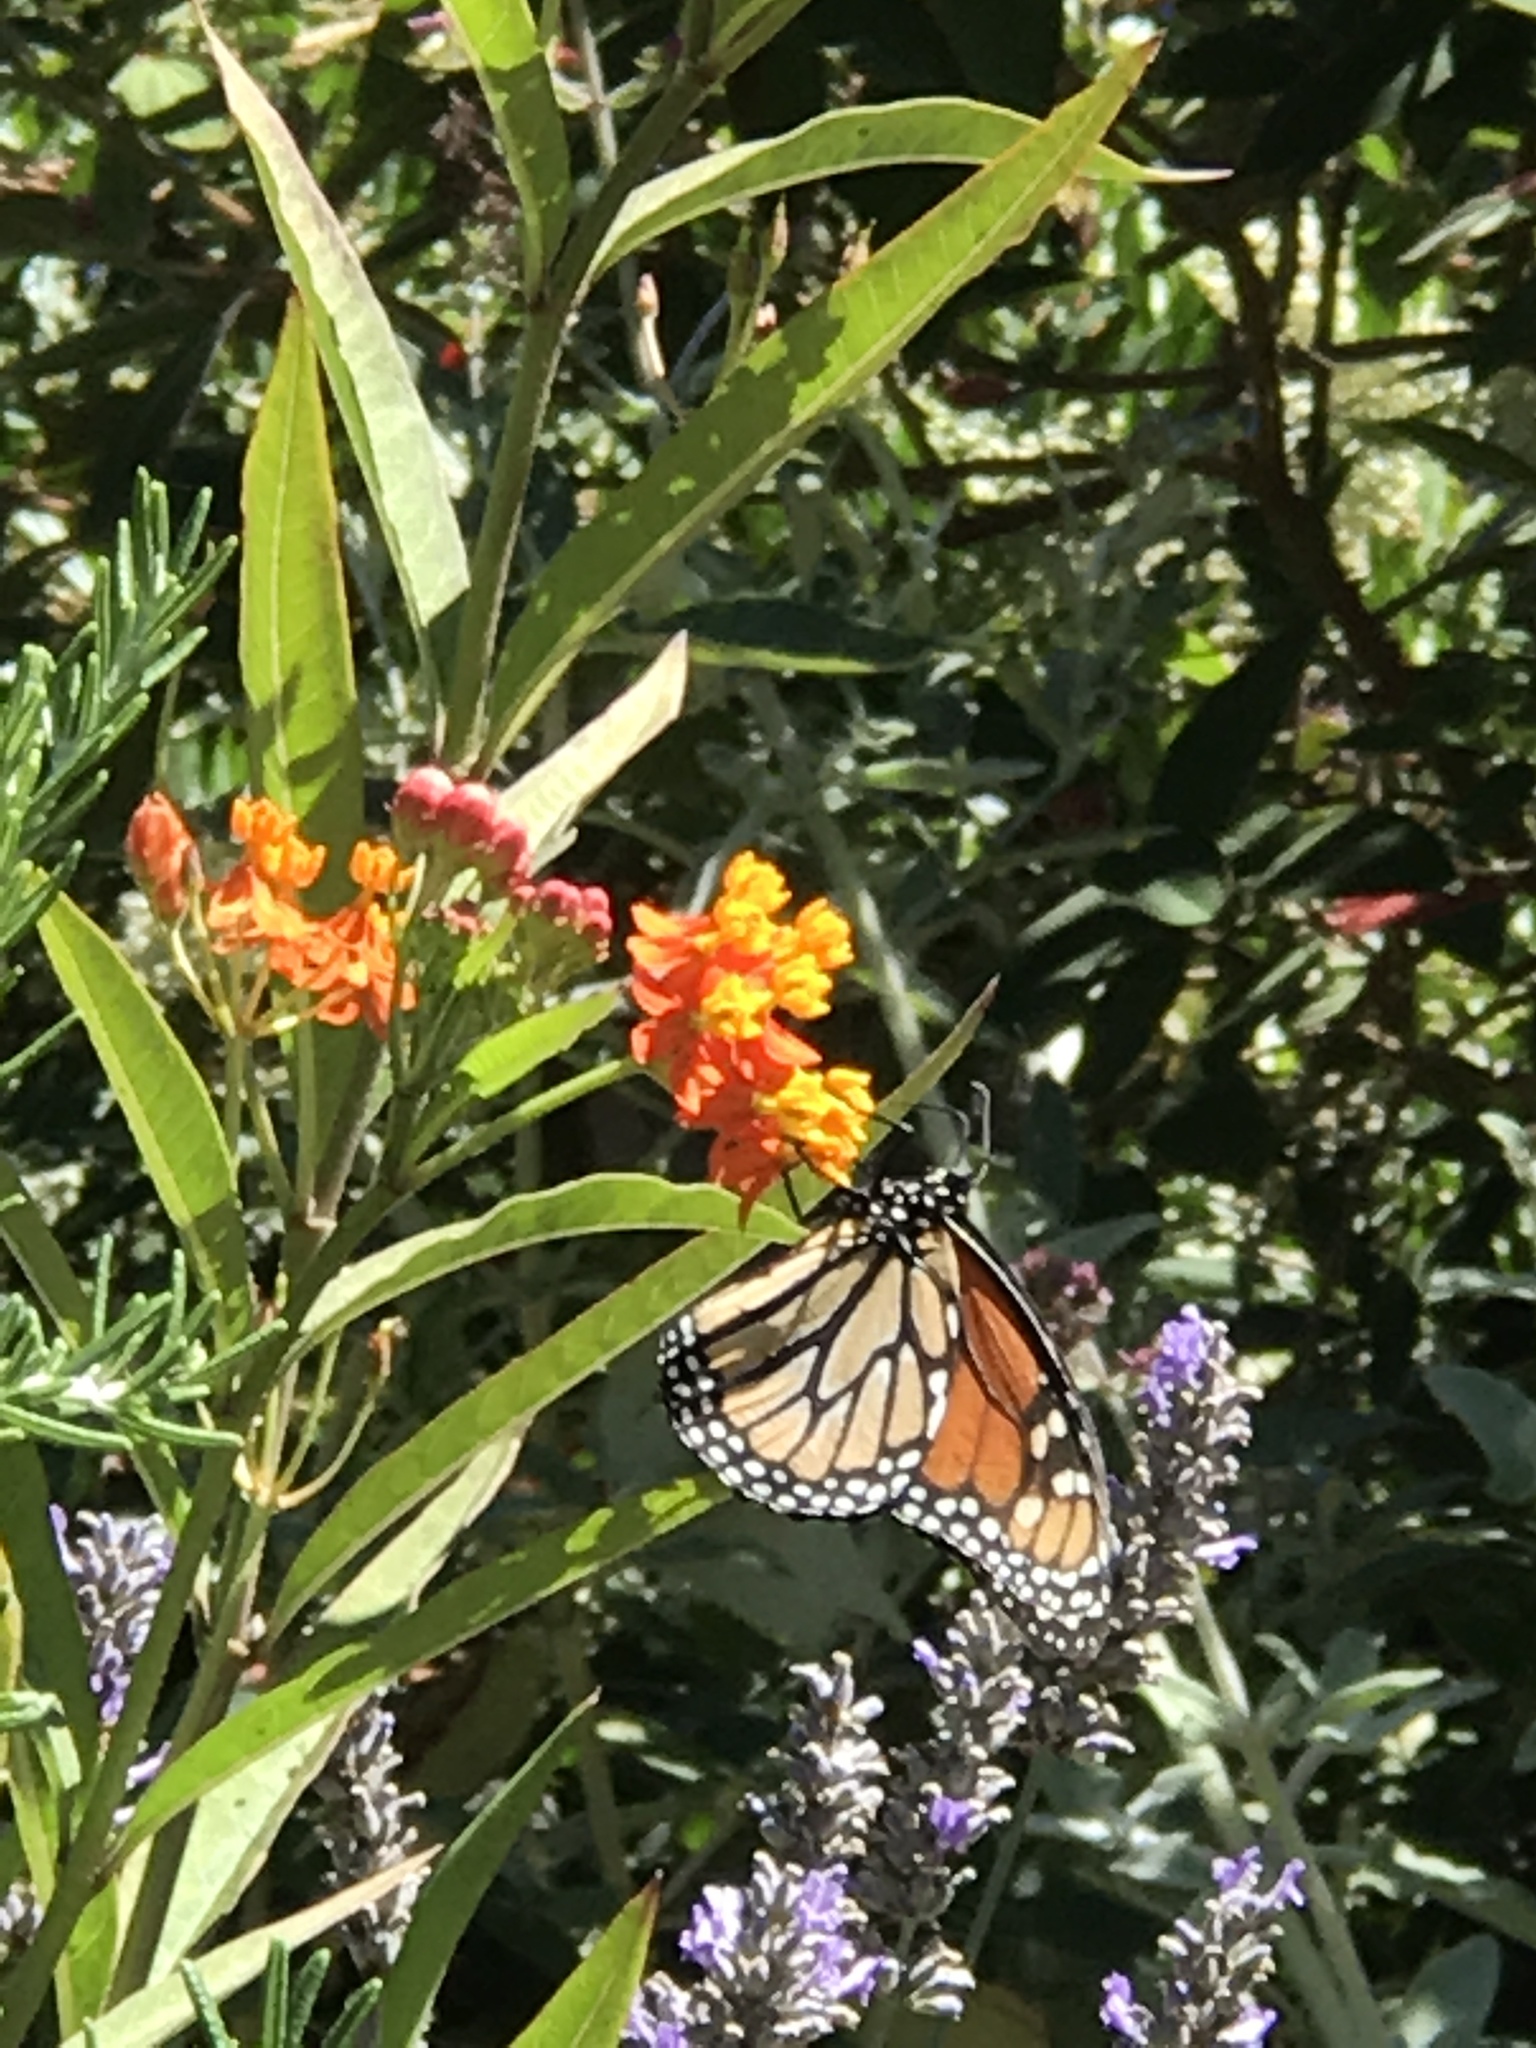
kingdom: Animalia
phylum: Arthropoda
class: Insecta
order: Lepidoptera
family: Nymphalidae
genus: Danaus
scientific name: Danaus plexippus
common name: Monarch
